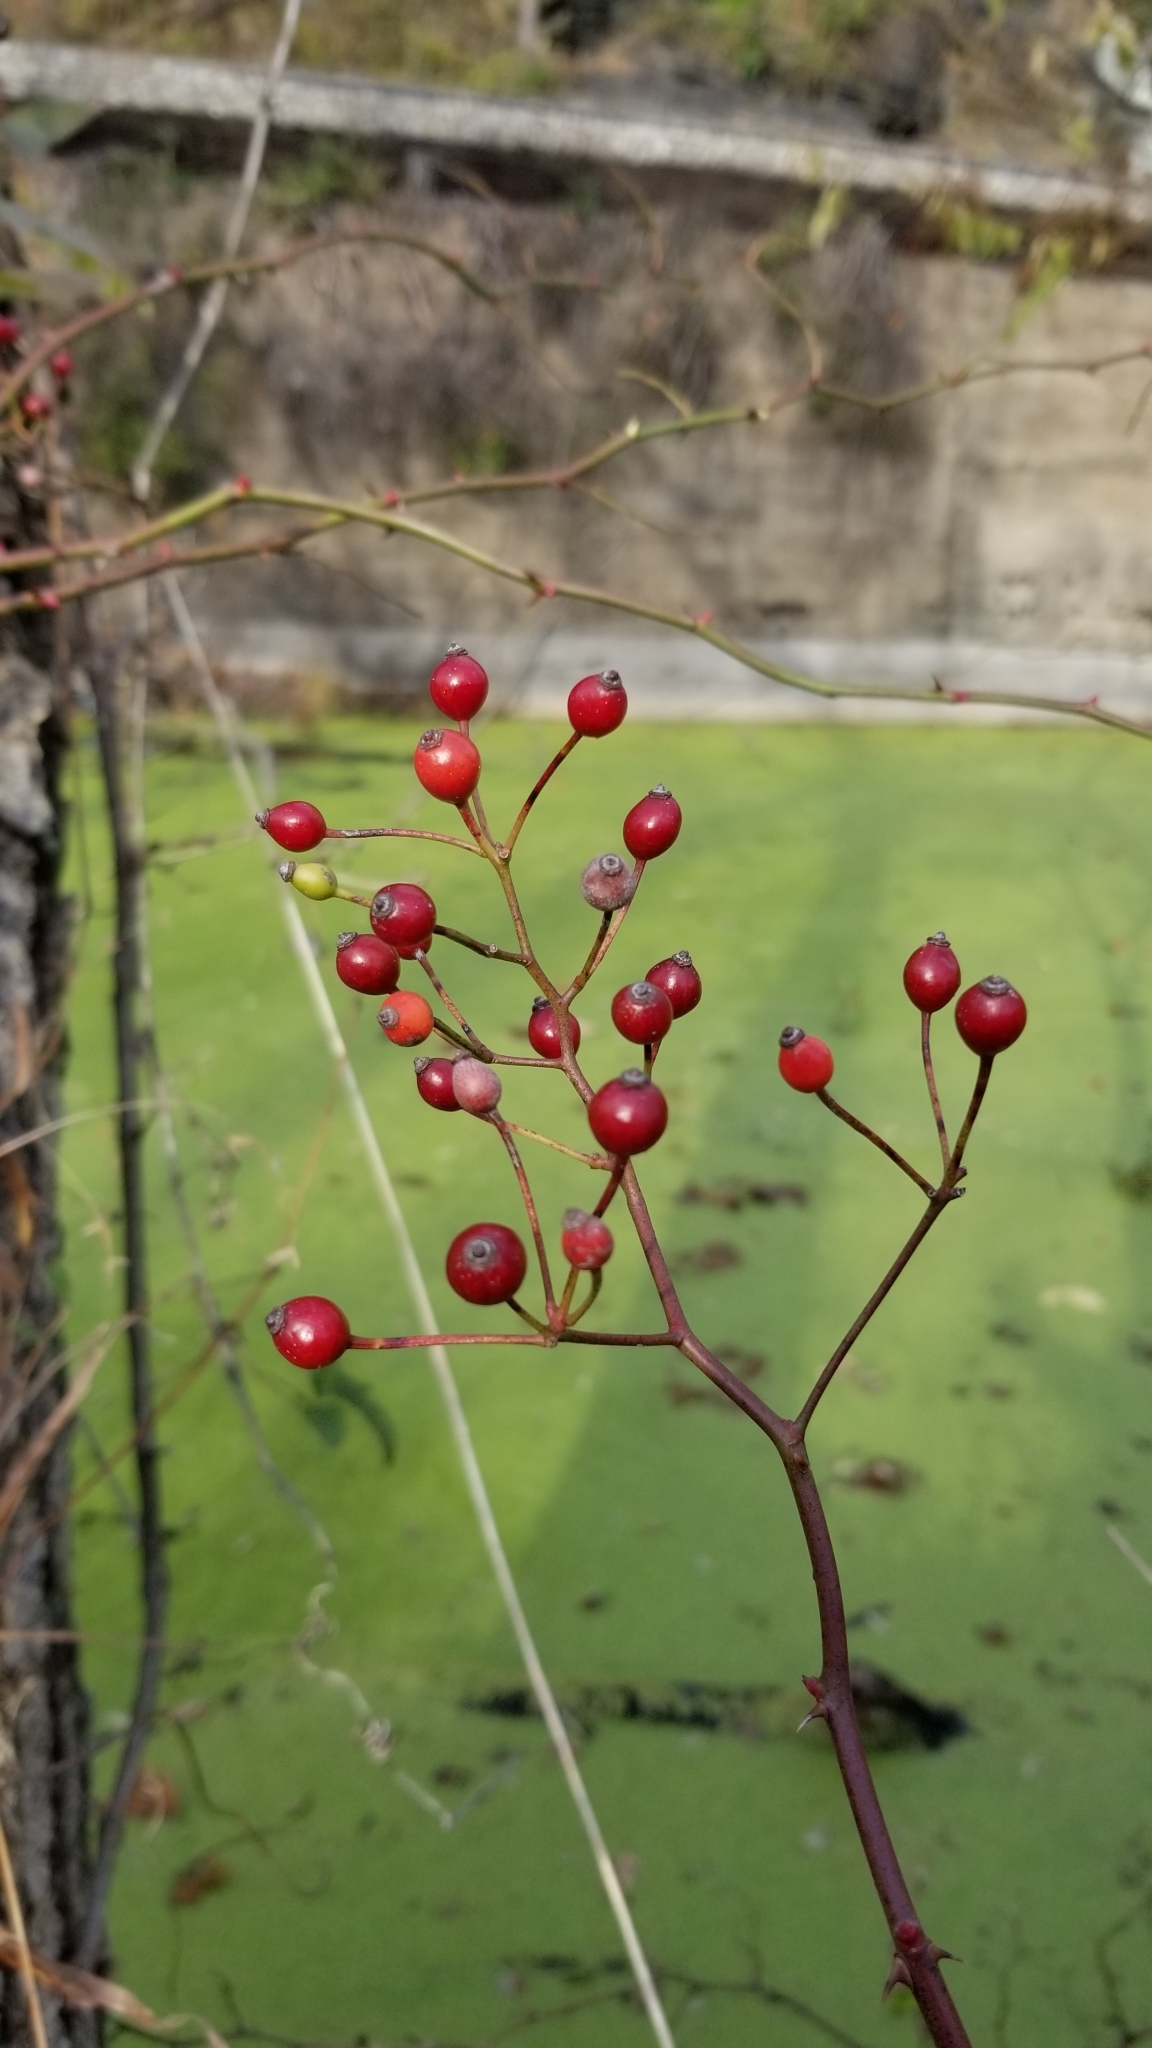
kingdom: Plantae
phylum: Tracheophyta
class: Magnoliopsida
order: Rosales
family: Rosaceae
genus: Rosa
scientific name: Rosa multiflora
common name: Multiflora rose
